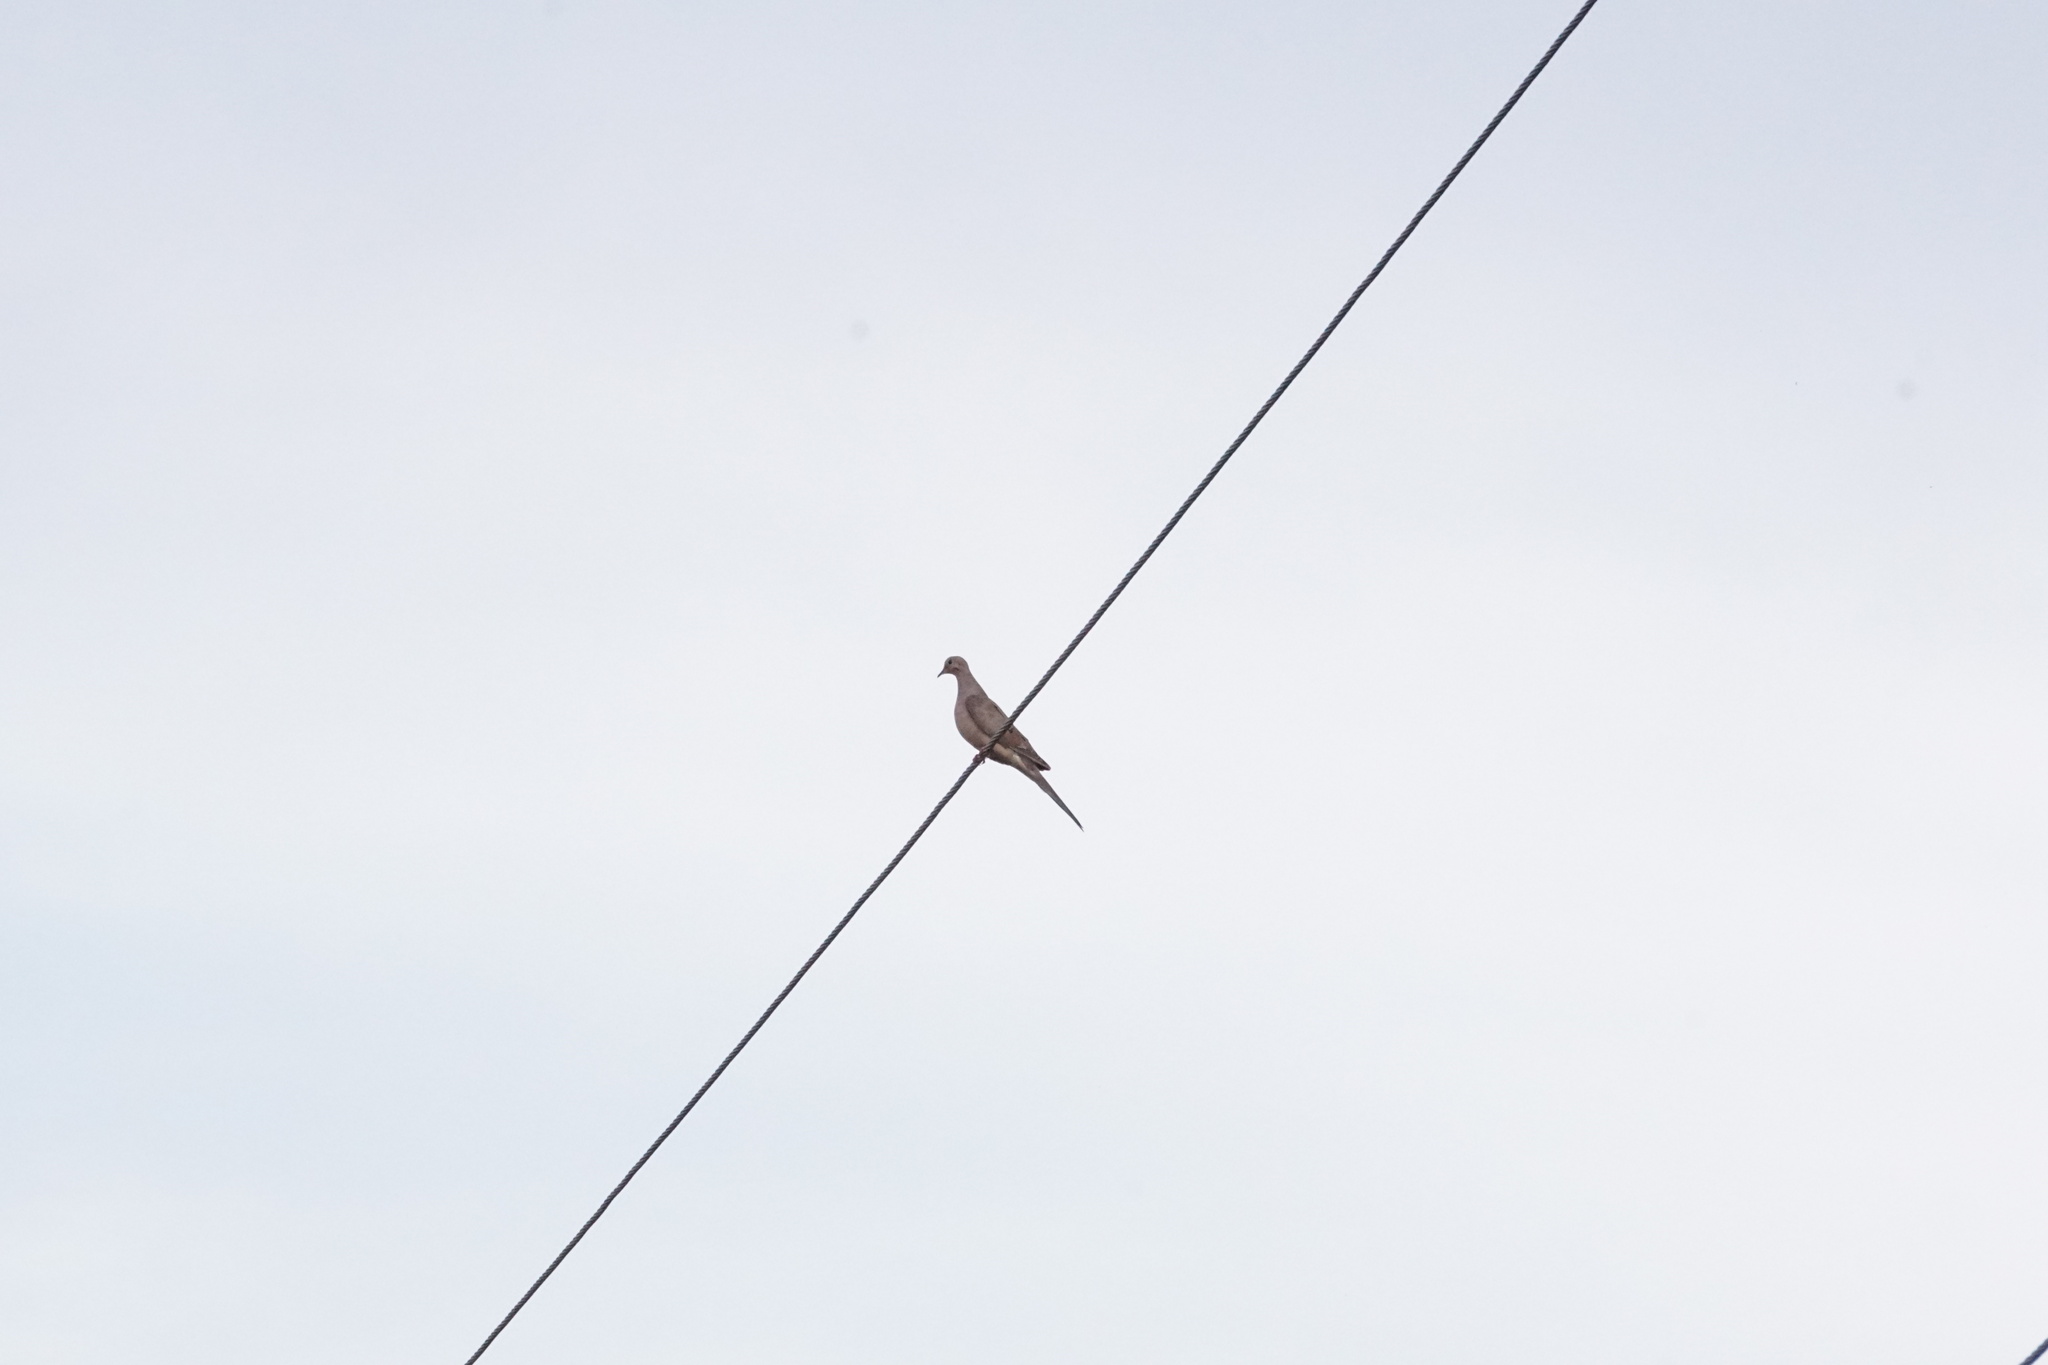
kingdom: Animalia
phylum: Chordata
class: Aves
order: Columbiformes
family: Columbidae
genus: Zenaida
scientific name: Zenaida macroura
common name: Mourning dove
